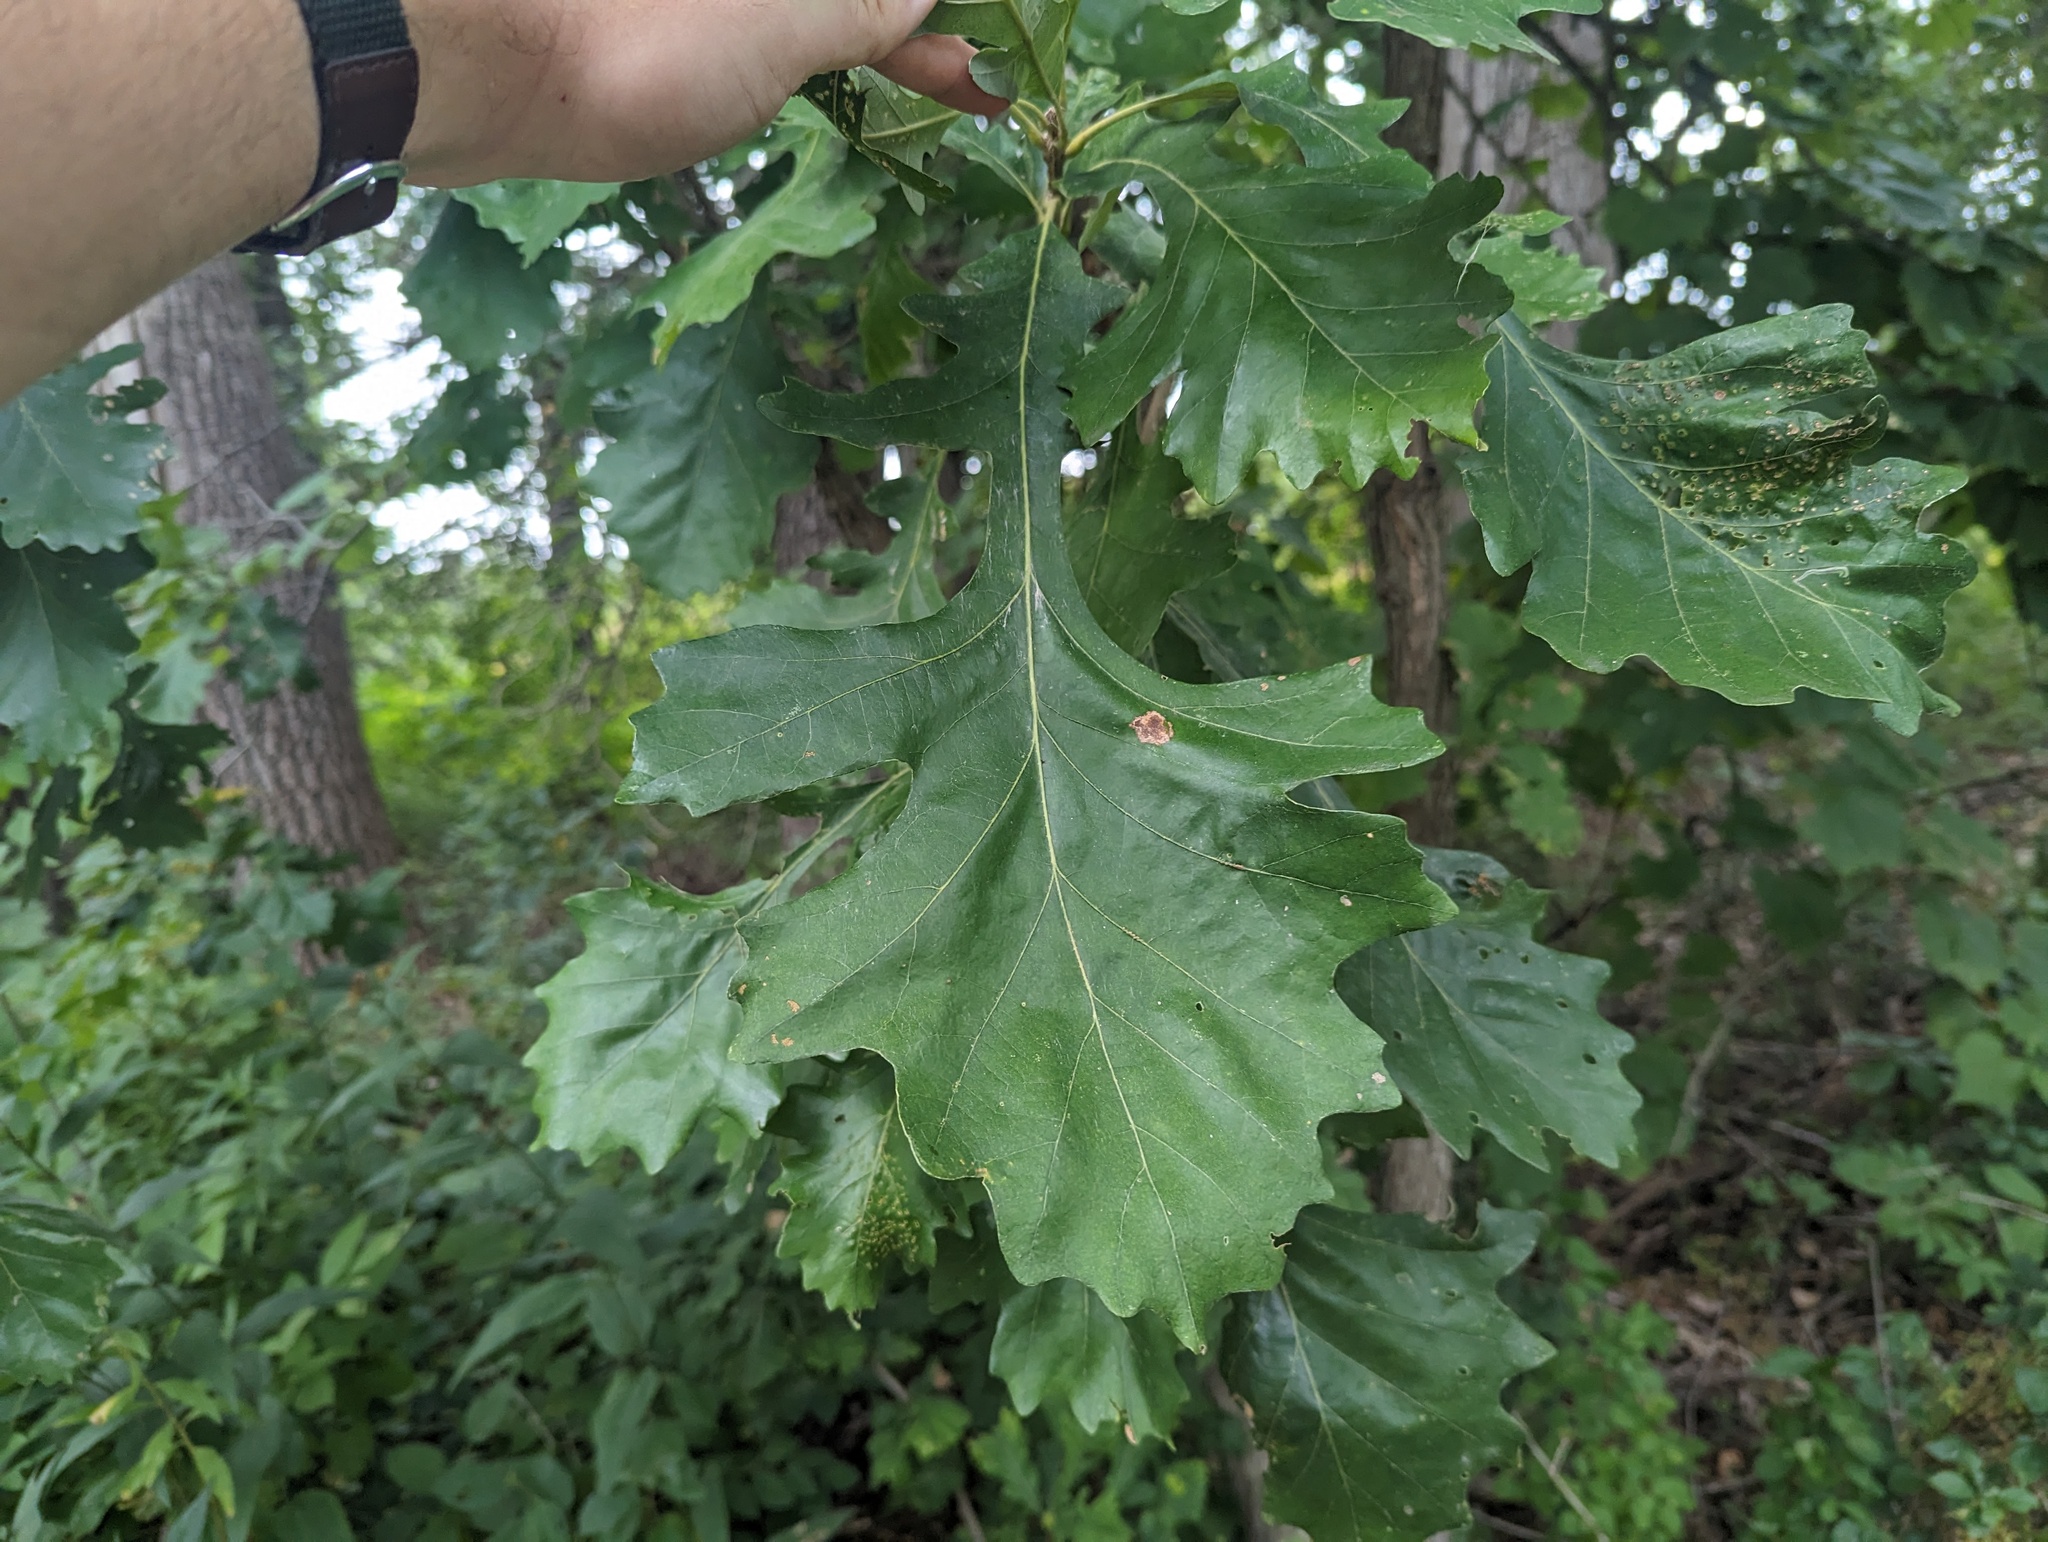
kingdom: Plantae
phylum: Tracheophyta
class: Magnoliopsida
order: Fagales
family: Fagaceae
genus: Quercus
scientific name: Quercus macrocarpa
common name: Bur oak
